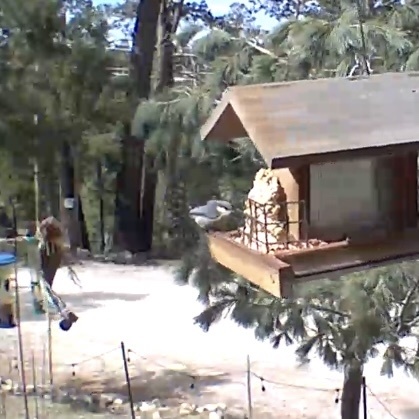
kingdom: Animalia
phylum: Chordata
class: Aves
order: Passeriformes
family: Sittidae
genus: Sitta
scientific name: Sitta pygmaea
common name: Pygmy nuthatch
